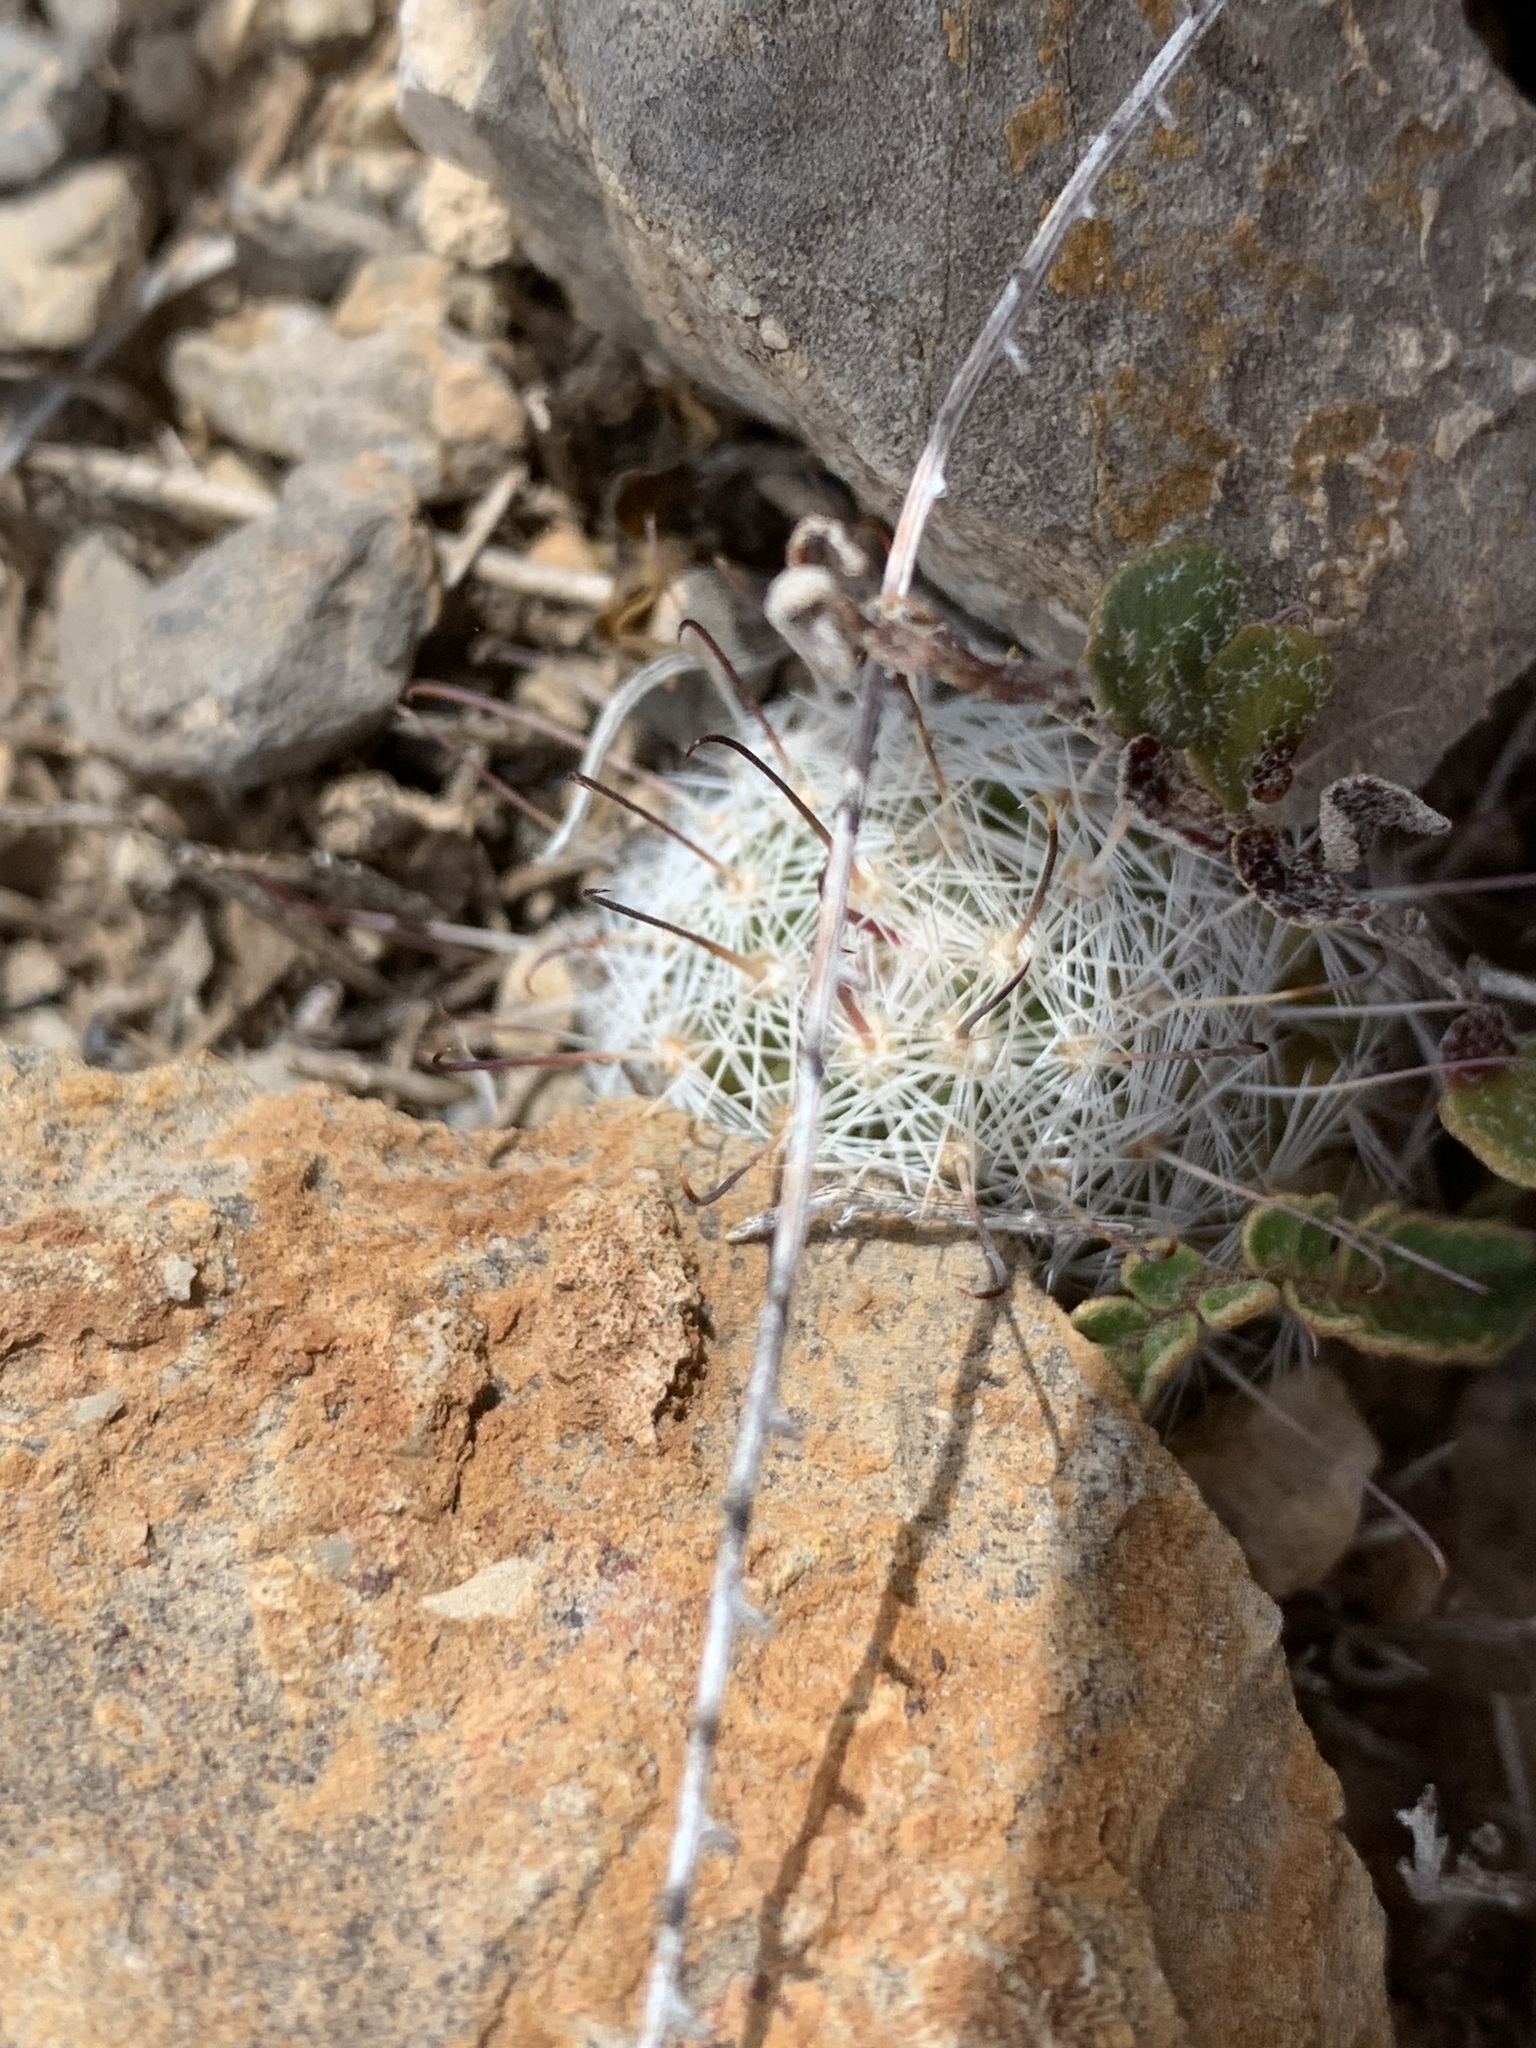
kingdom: Plantae
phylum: Tracheophyta
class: Magnoliopsida
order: Caryophyllales
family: Cactaceae
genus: Cochemiea
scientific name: Cochemiea grahamii
